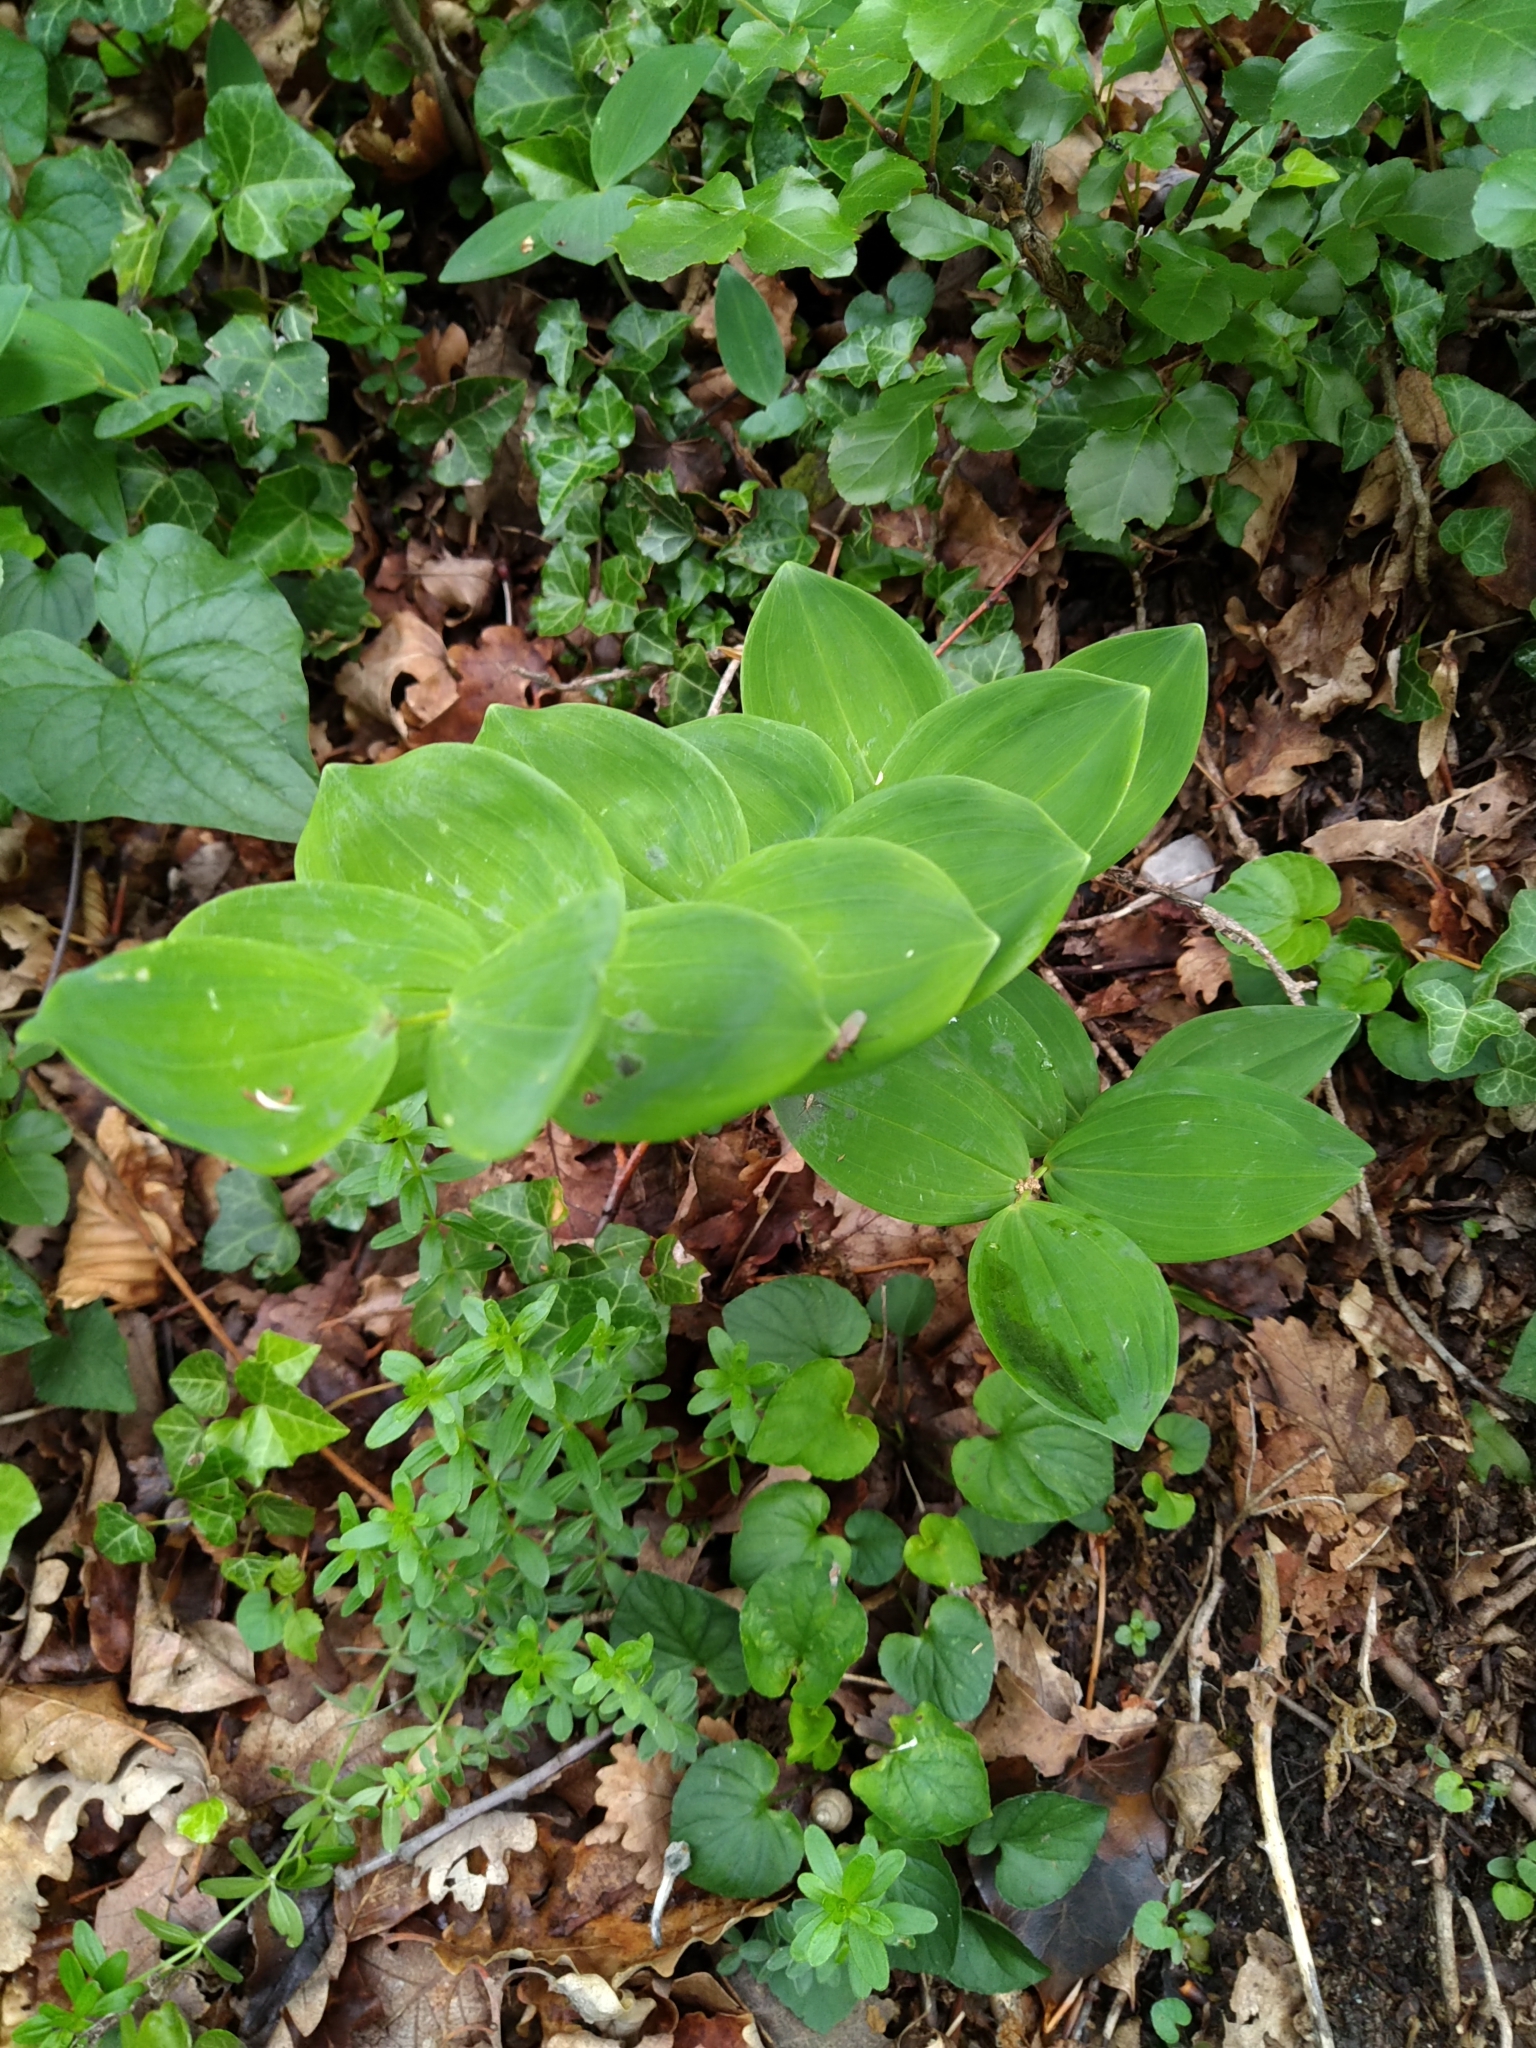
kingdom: Plantae
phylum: Tracheophyta
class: Liliopsida
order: Asparagales
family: Asparagaceae
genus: Polygonatum
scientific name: Polygonatum odoratum
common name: Angular solomon's-seal
